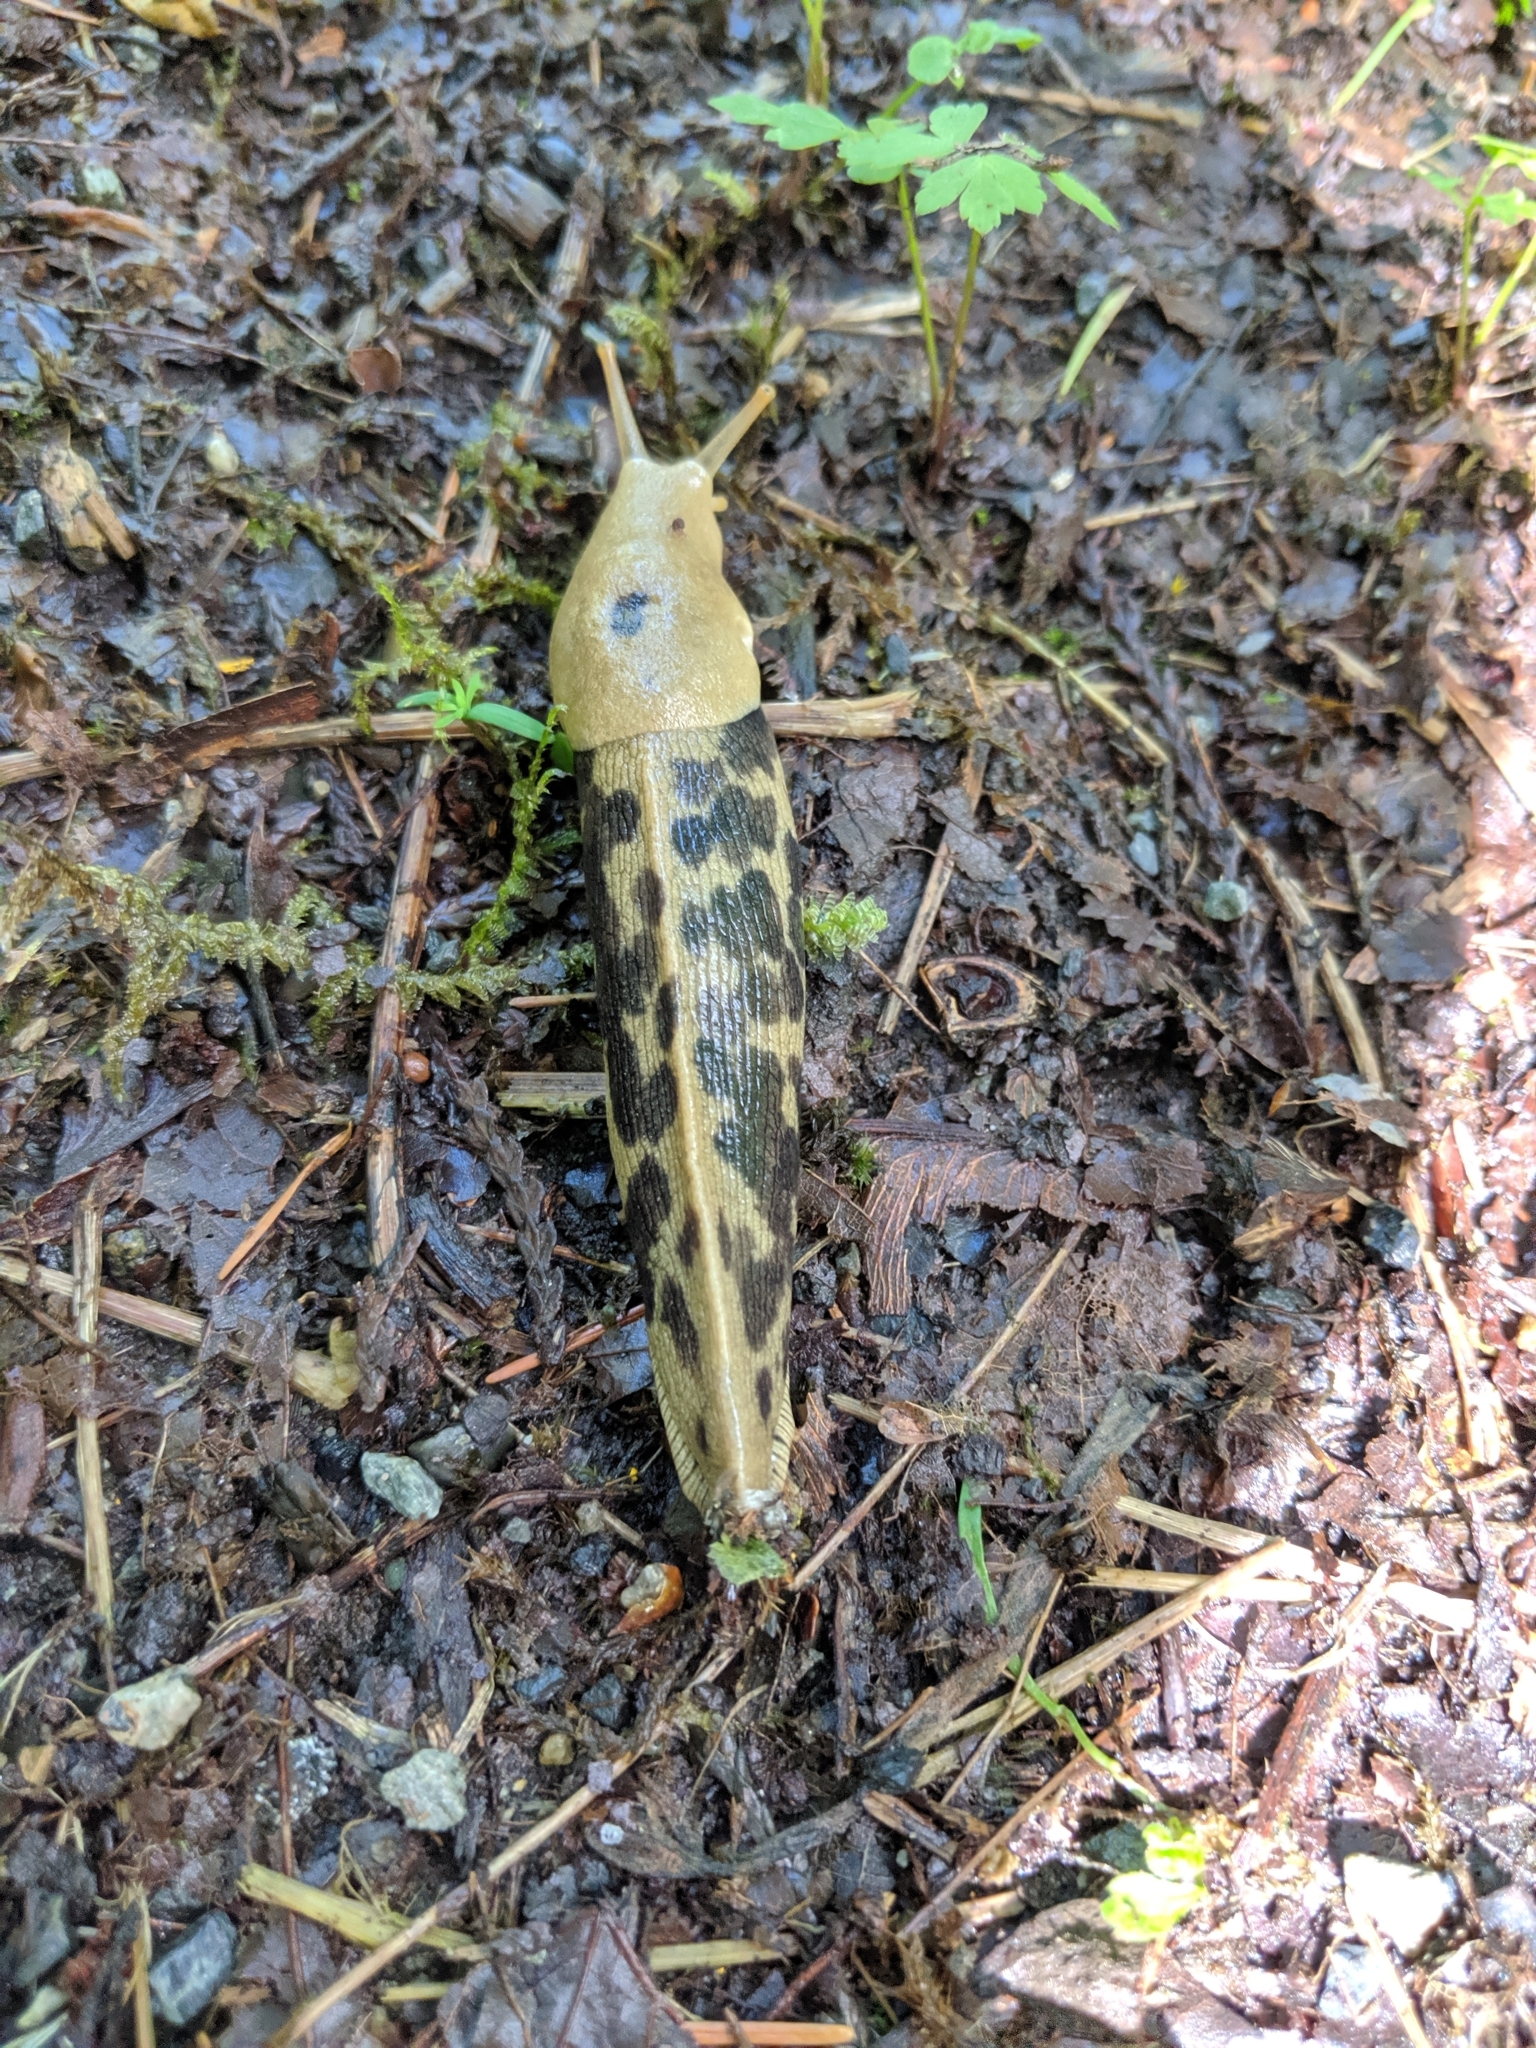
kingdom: Animalia
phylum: Mollusca
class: Gastropoda
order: Stylommatophora
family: Ariolimacidae
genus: Ariolimax
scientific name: Ariolimax columbianus
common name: Pacific banana slug
